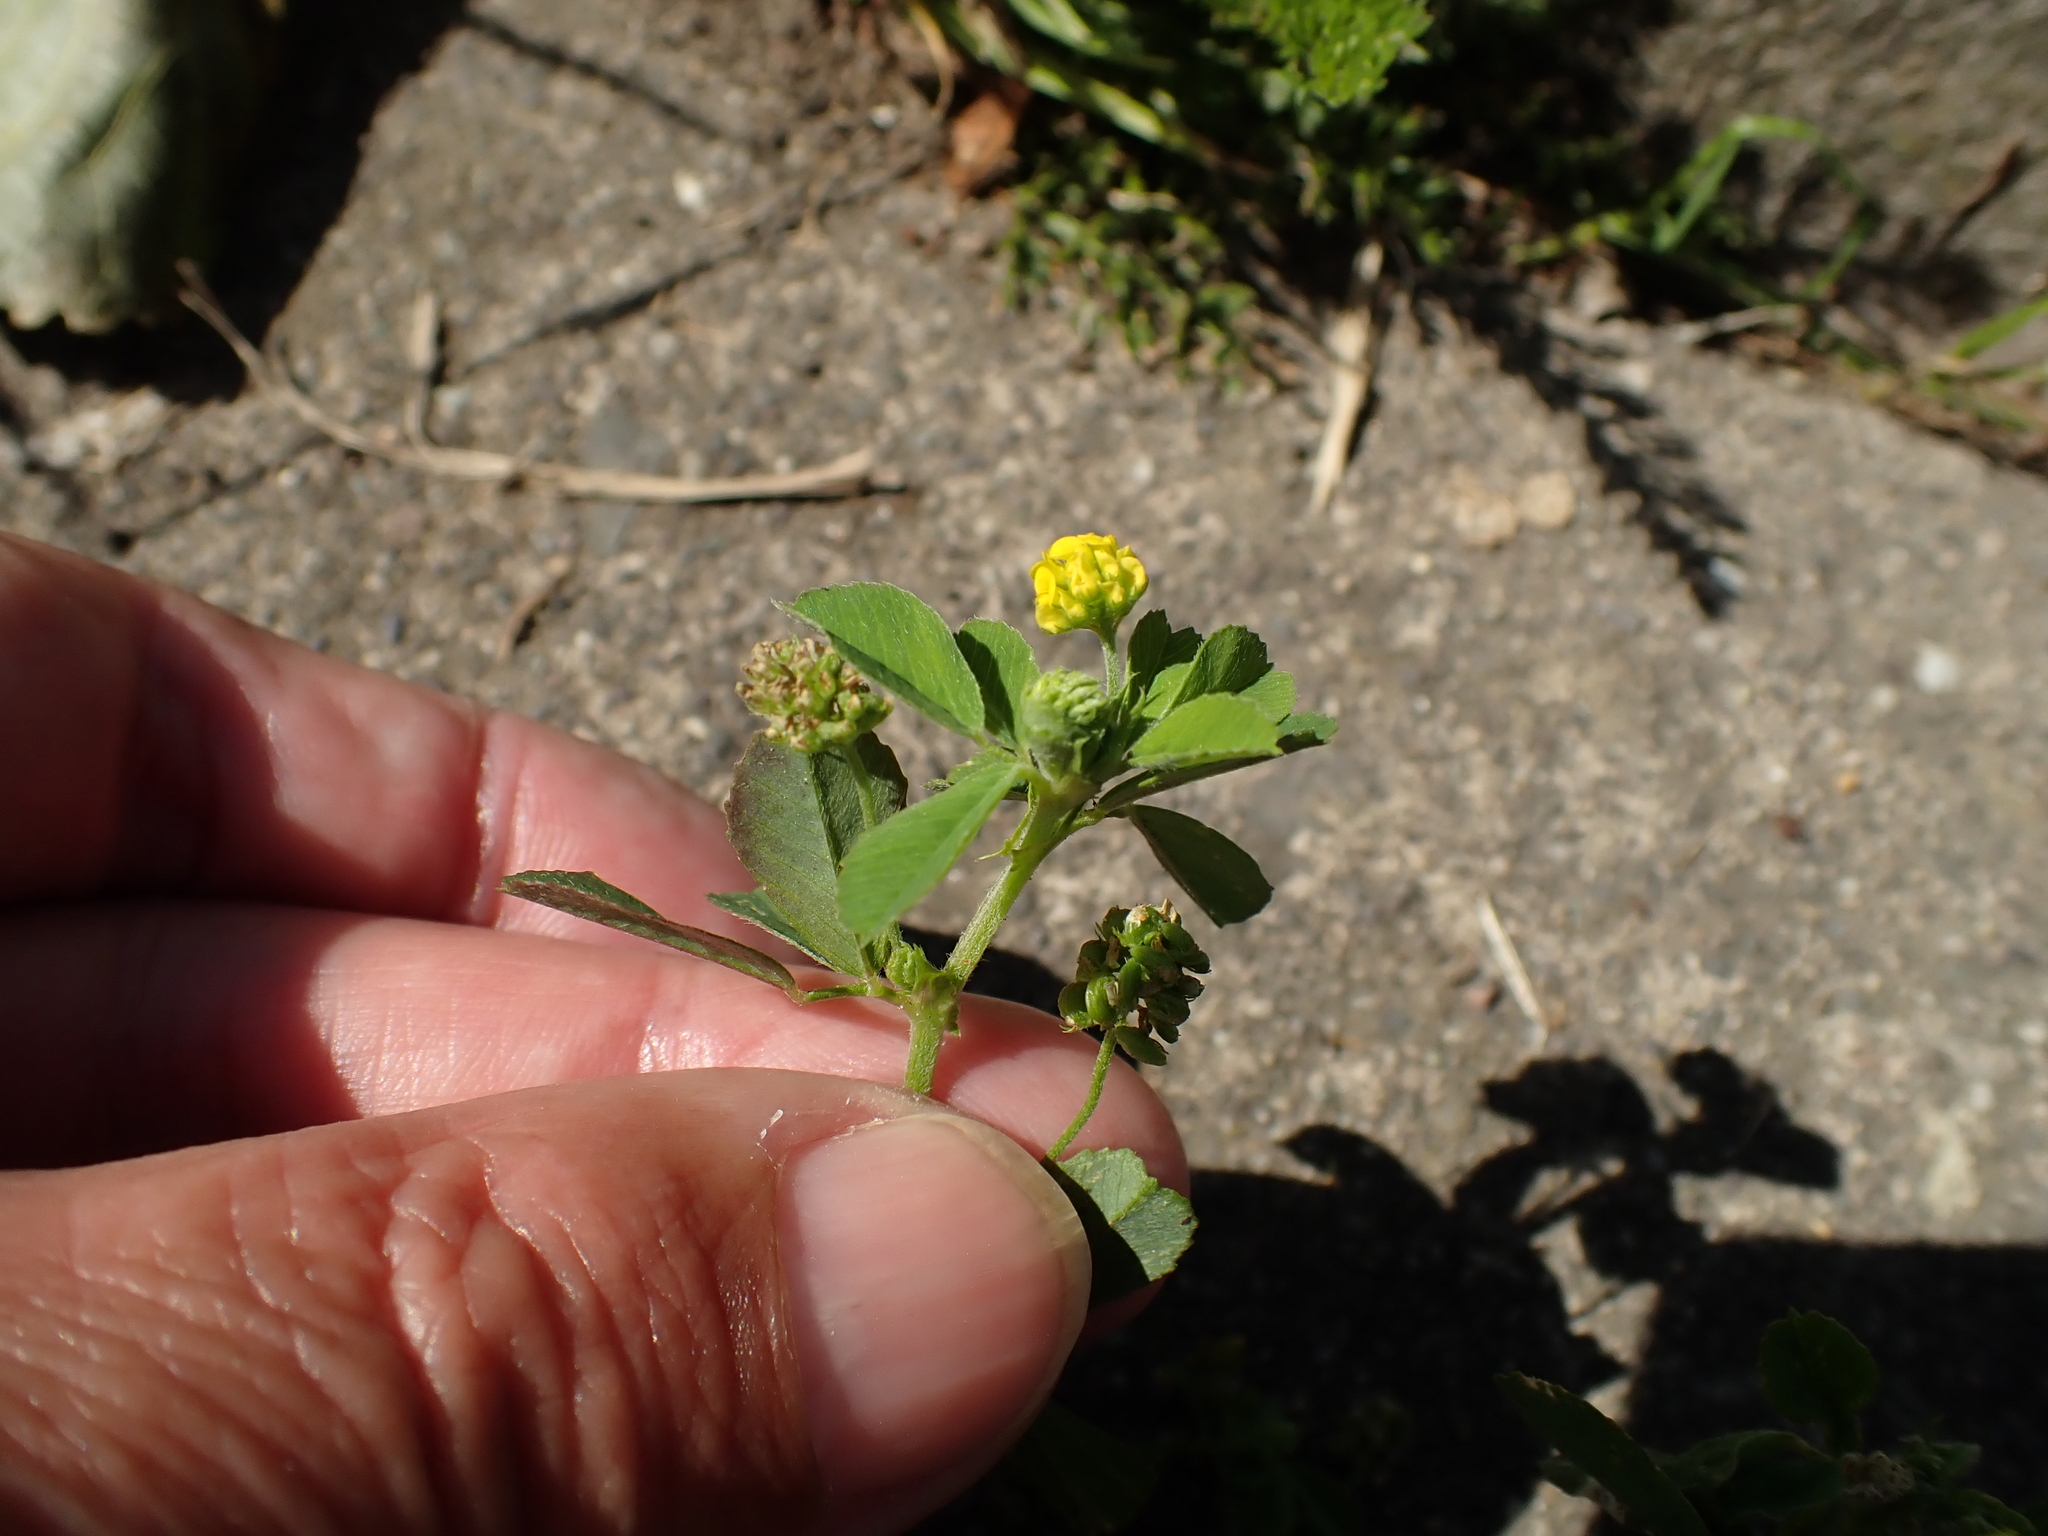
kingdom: Plantae
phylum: Tracheophyta
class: Magnoliopsida
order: Fabales
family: Fabaceae
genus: Medicago
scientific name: Medicago lupulina
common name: Black medick
